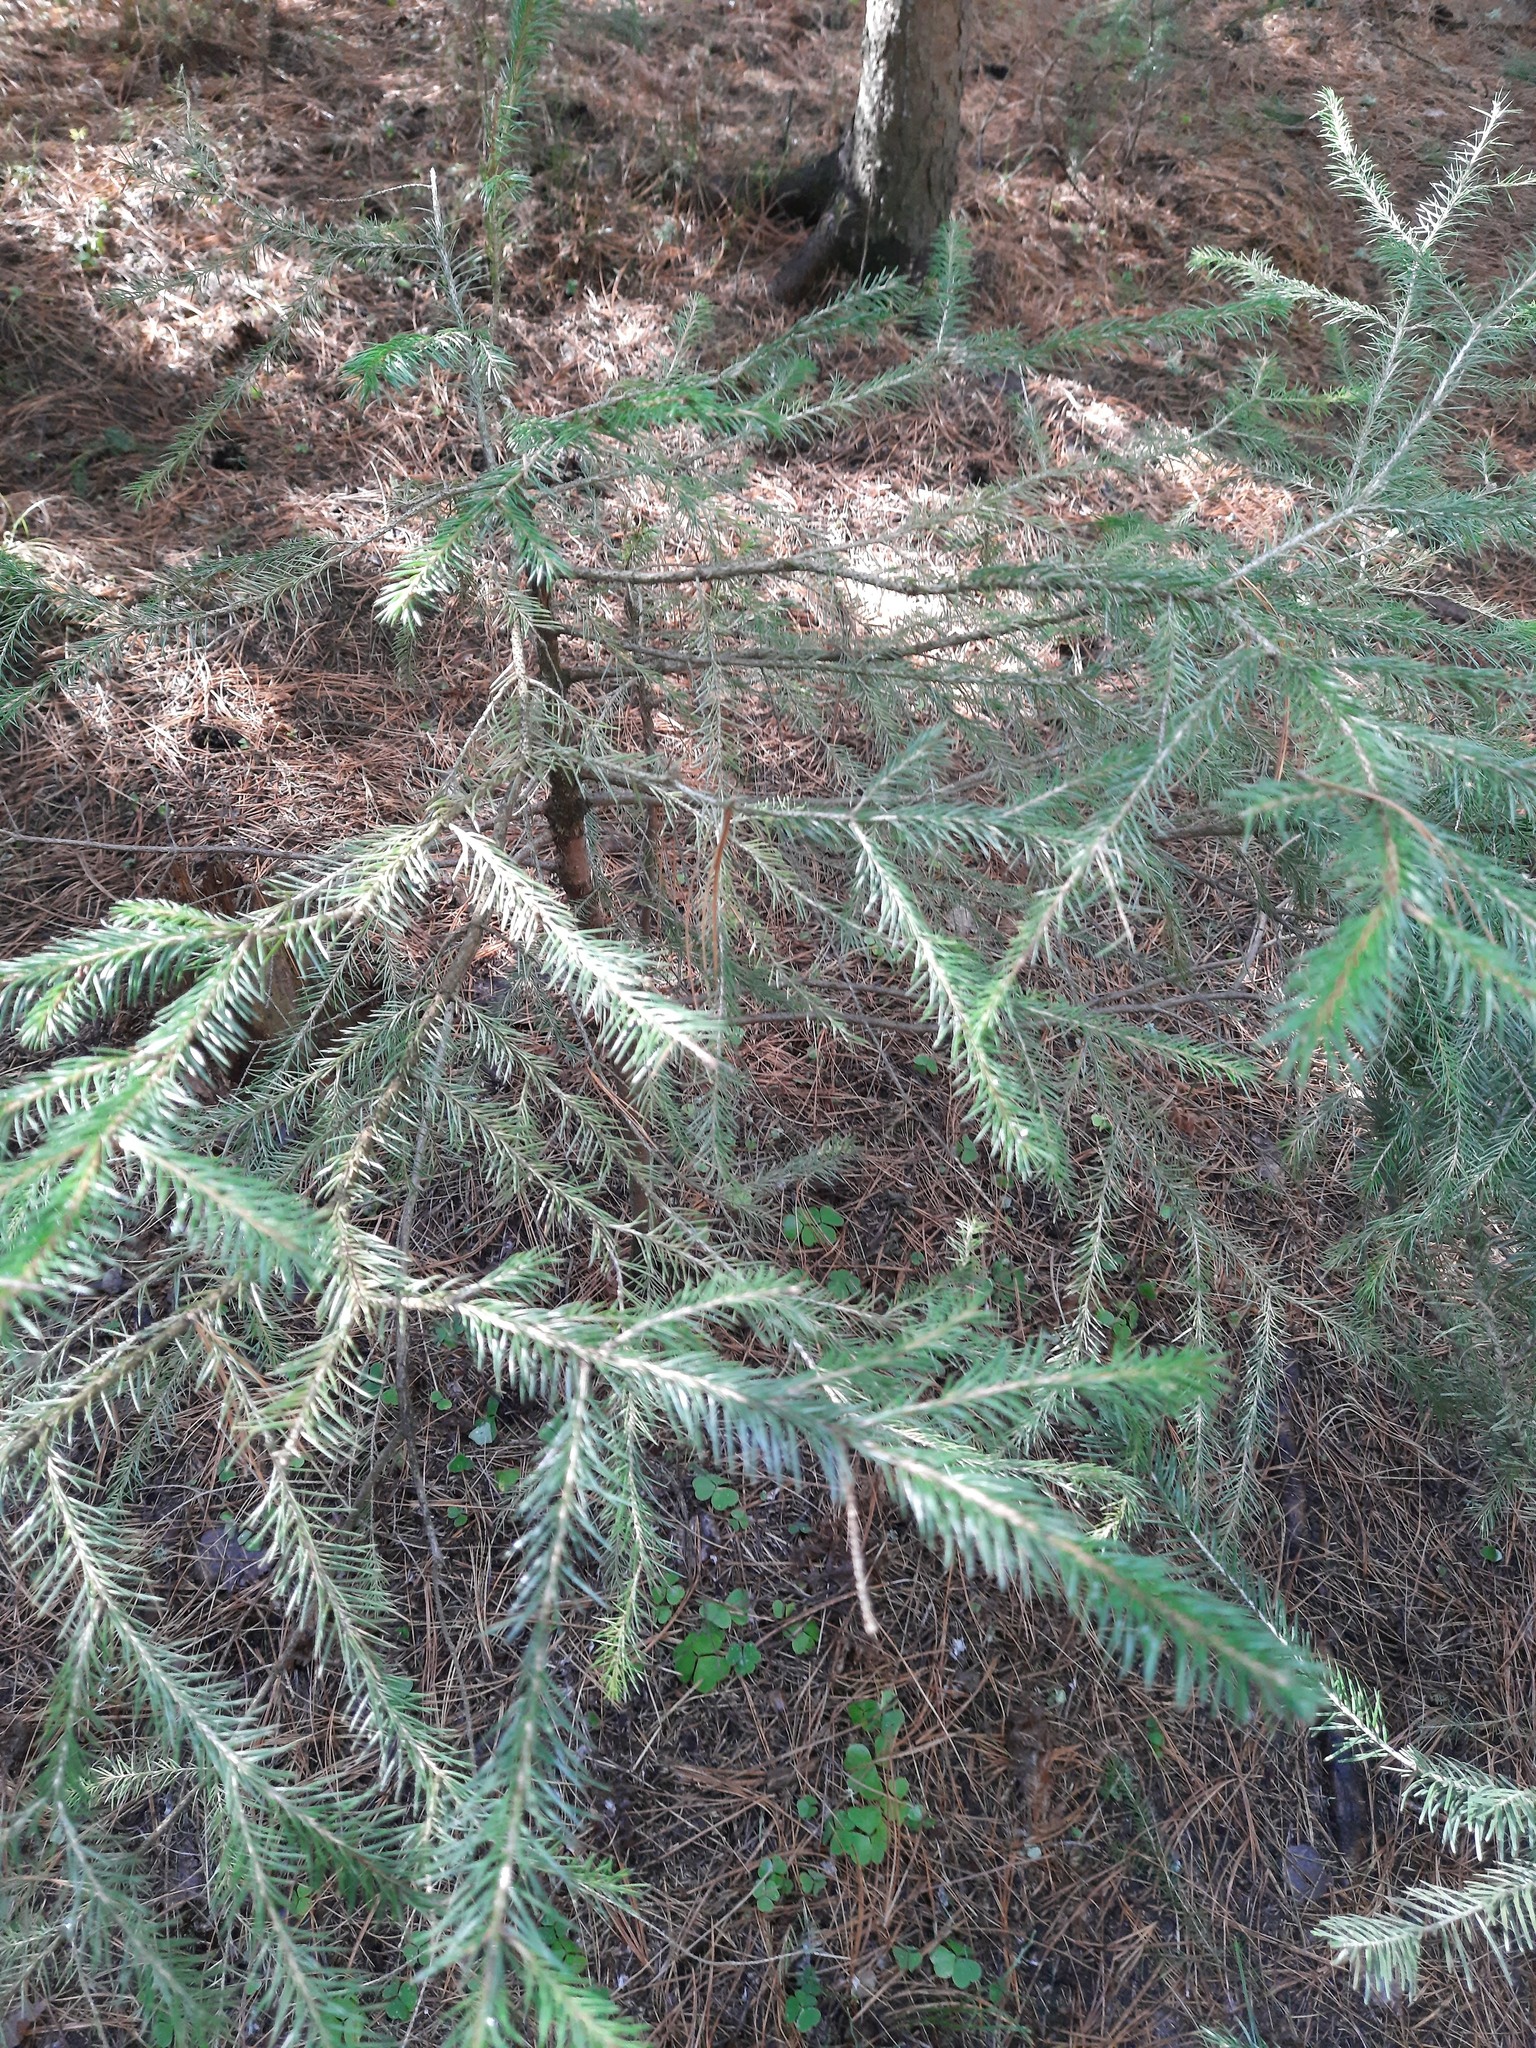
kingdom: Plantae
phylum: Tracheophyta
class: Pinopsida
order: Pinales
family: Pinaceae
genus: Abies
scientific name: Abies sibirica
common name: Siberian fir
